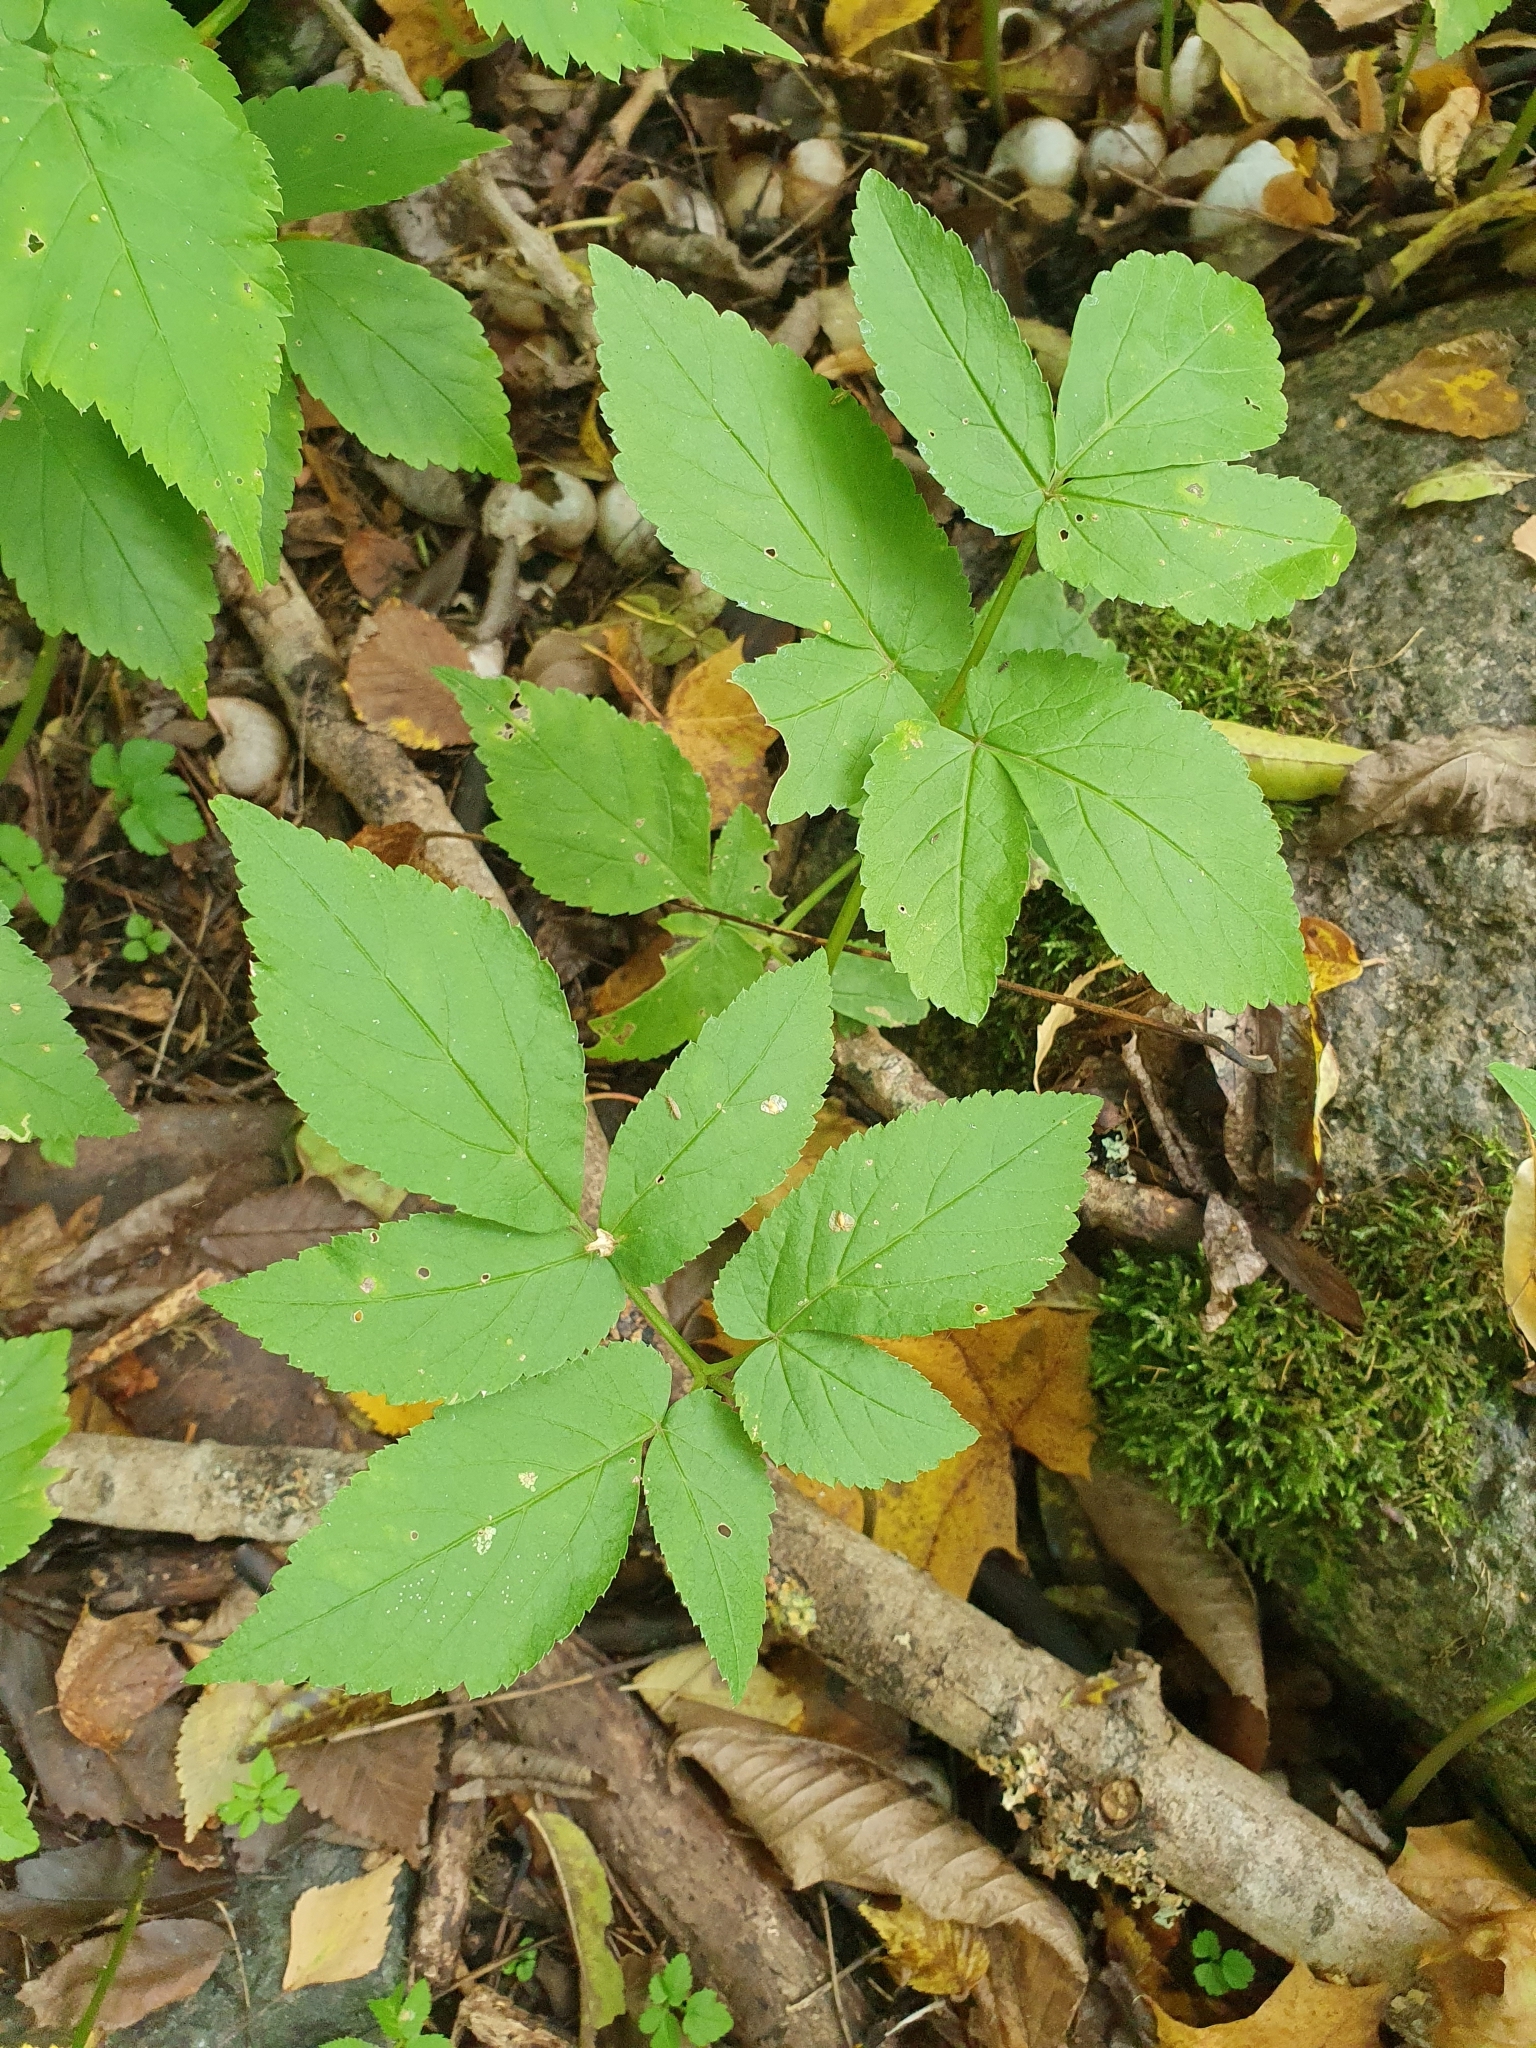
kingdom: Plantae
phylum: Tracheophyta
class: Magnoliopsida
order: Apiales
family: Apiaceae
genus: Aegopodium
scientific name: Aegopodium podagraria
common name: Ground-elder
